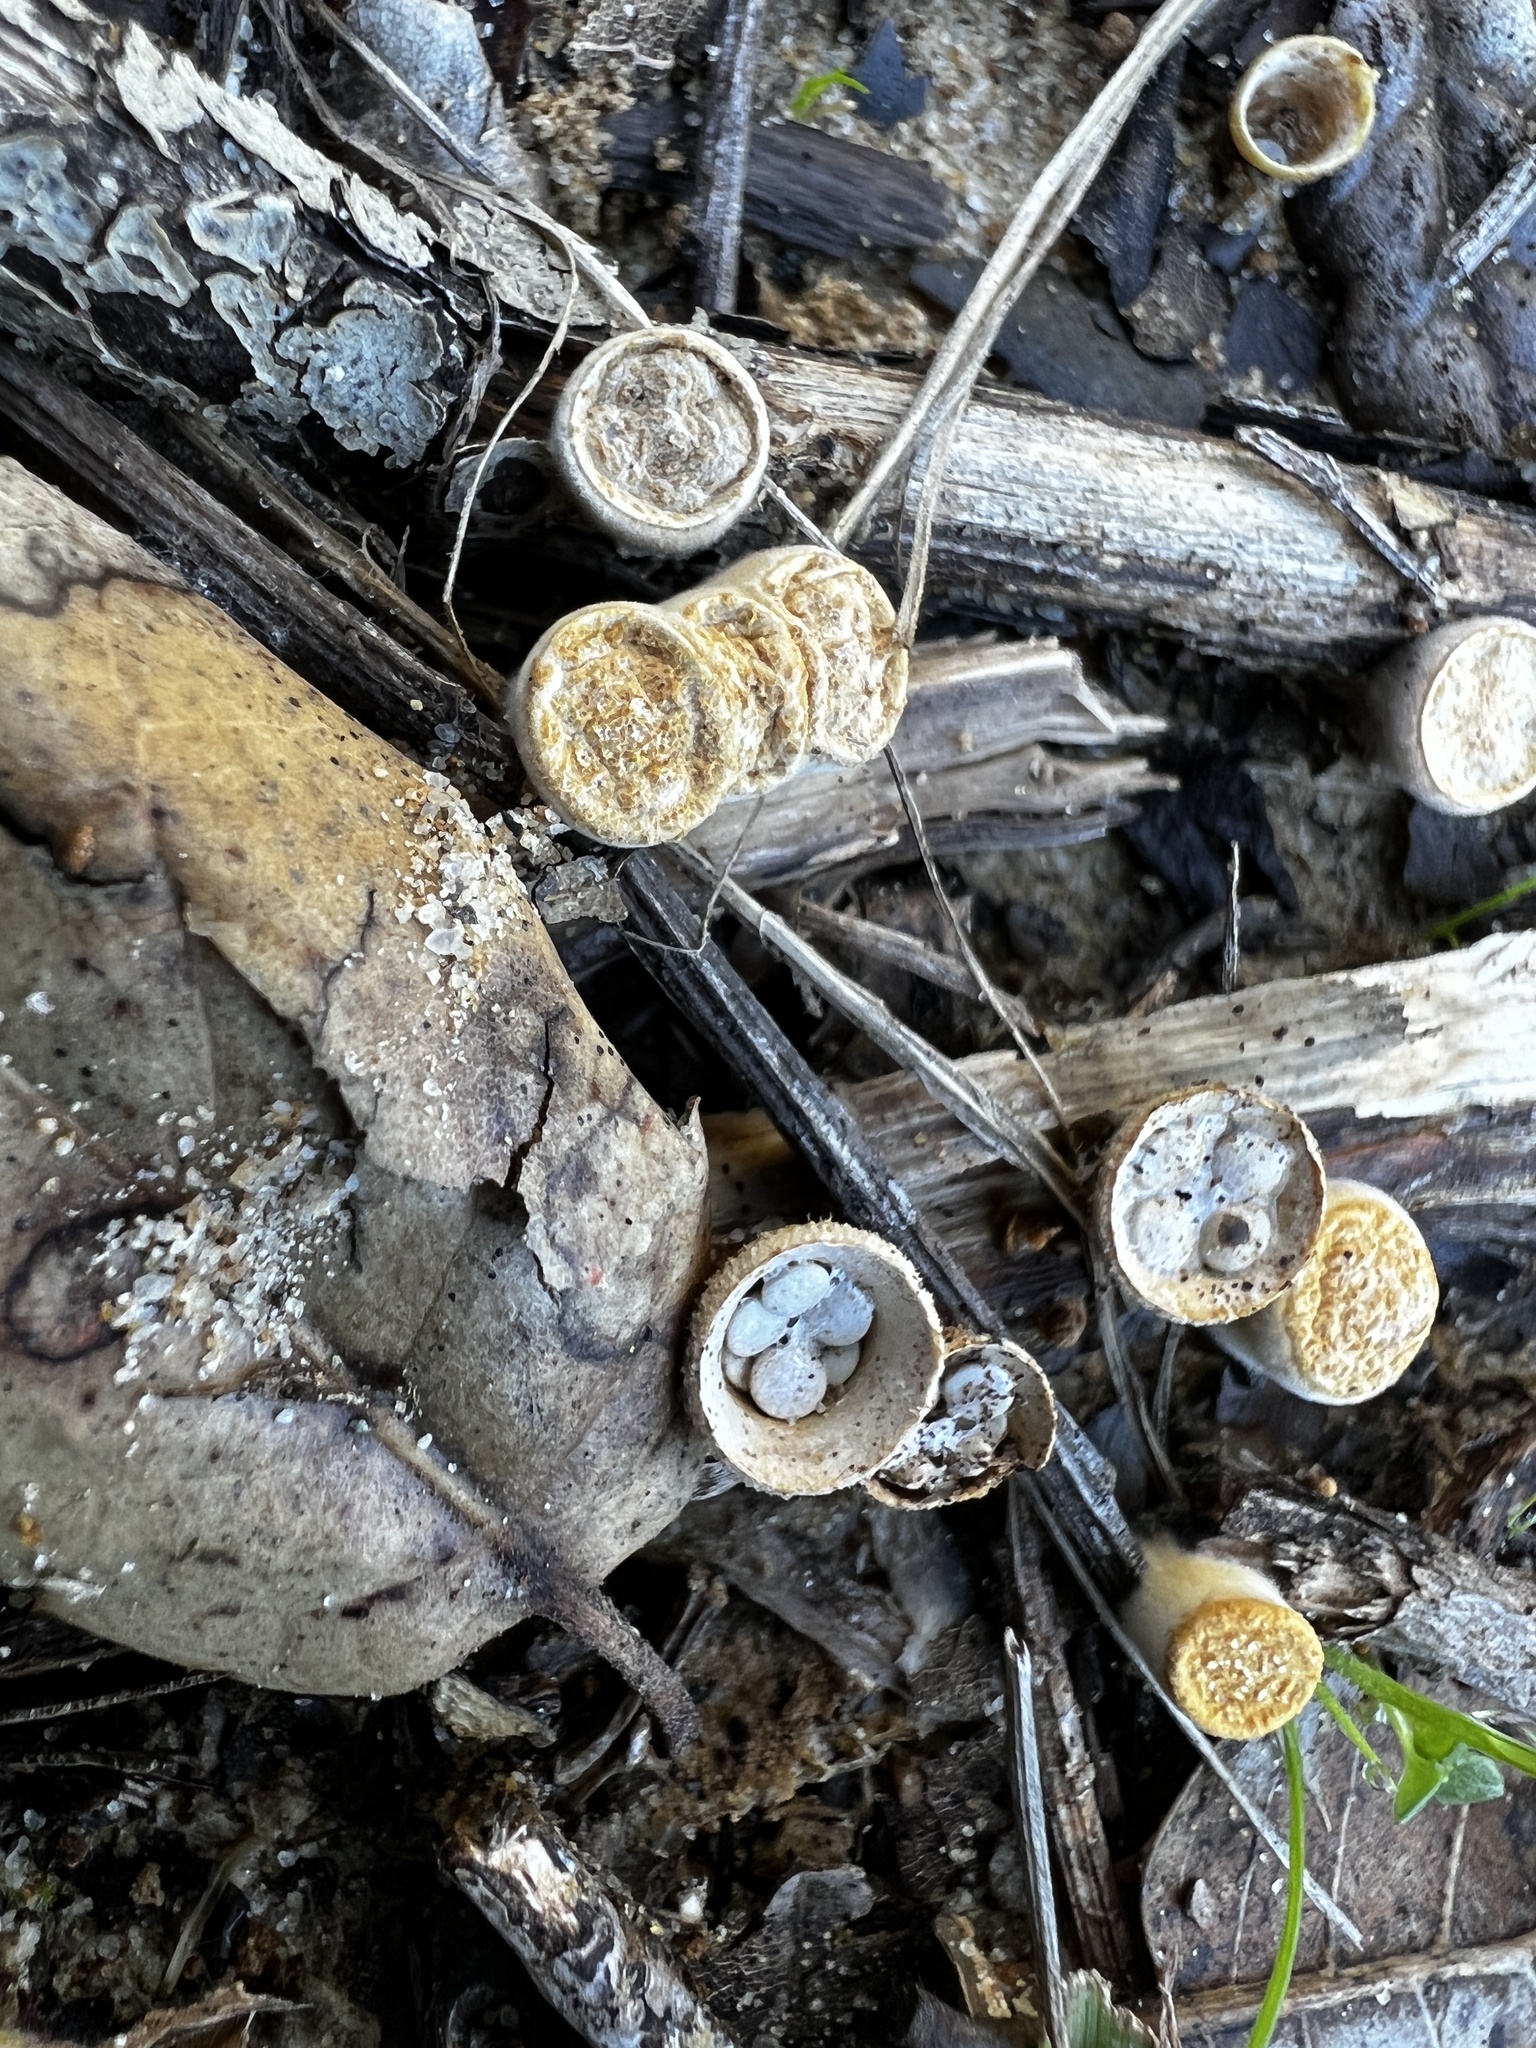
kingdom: Fungi
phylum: Basidiomycota
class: Agaricomycetes
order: Agaricales
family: Nidulariaceae
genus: Crucibulum
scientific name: Crucibulum laeve
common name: Common bird's nest
